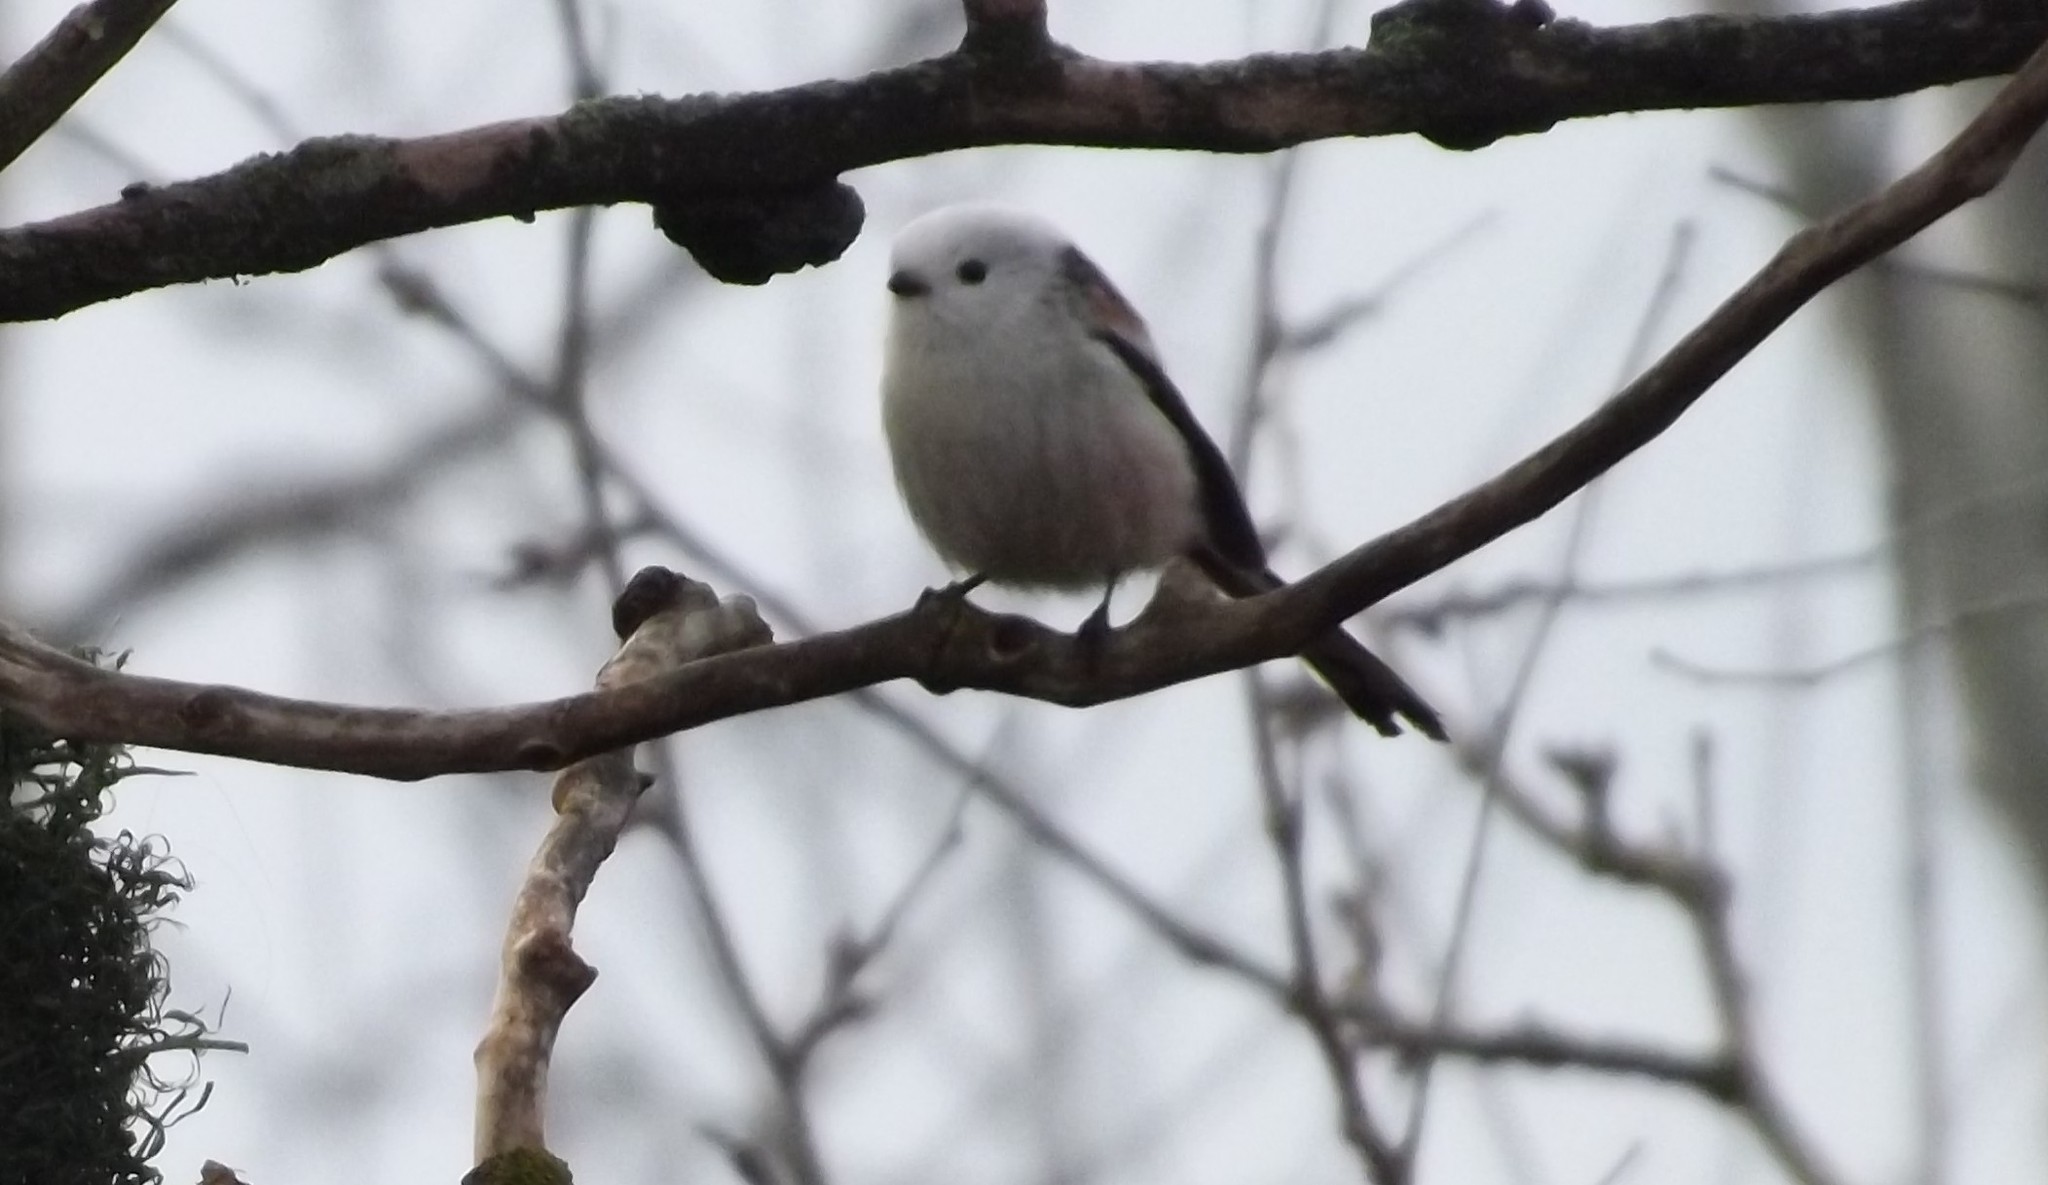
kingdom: Animalia
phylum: Chordata
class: Aves
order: Passeriformes
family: Aegithalidae
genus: Aegithalos
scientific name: Aegithalos caudatus
